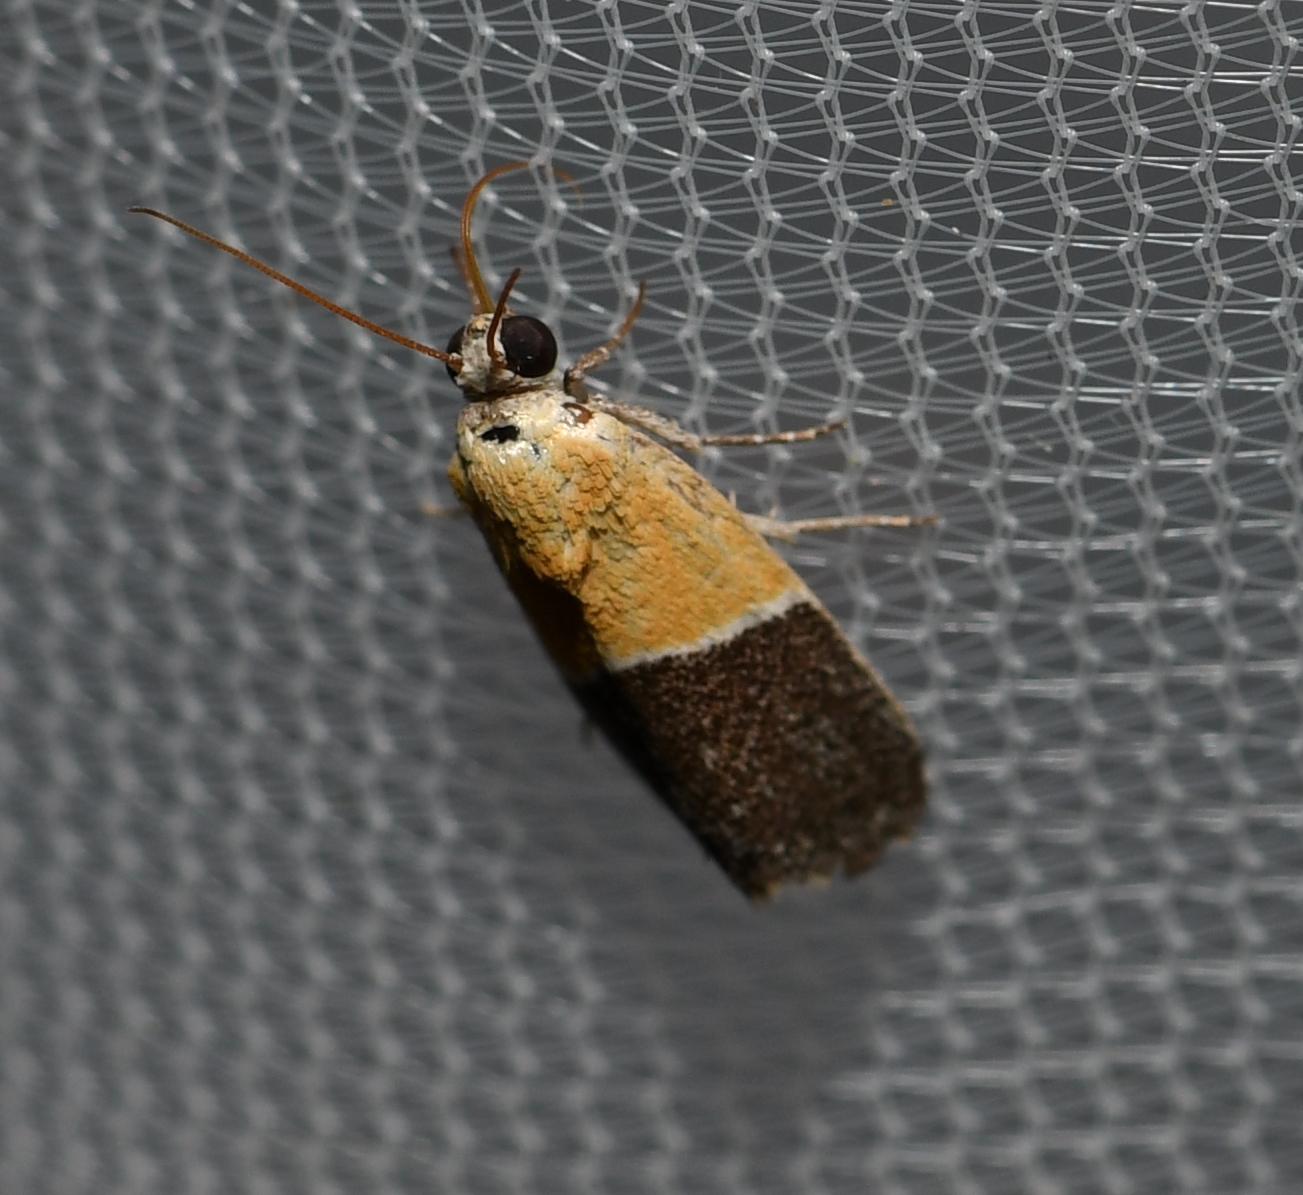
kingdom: Animalia
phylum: Arthropoda
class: Insecta
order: Lepidoptera
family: Noctuidae
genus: Acontia
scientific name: Acontia clausula
